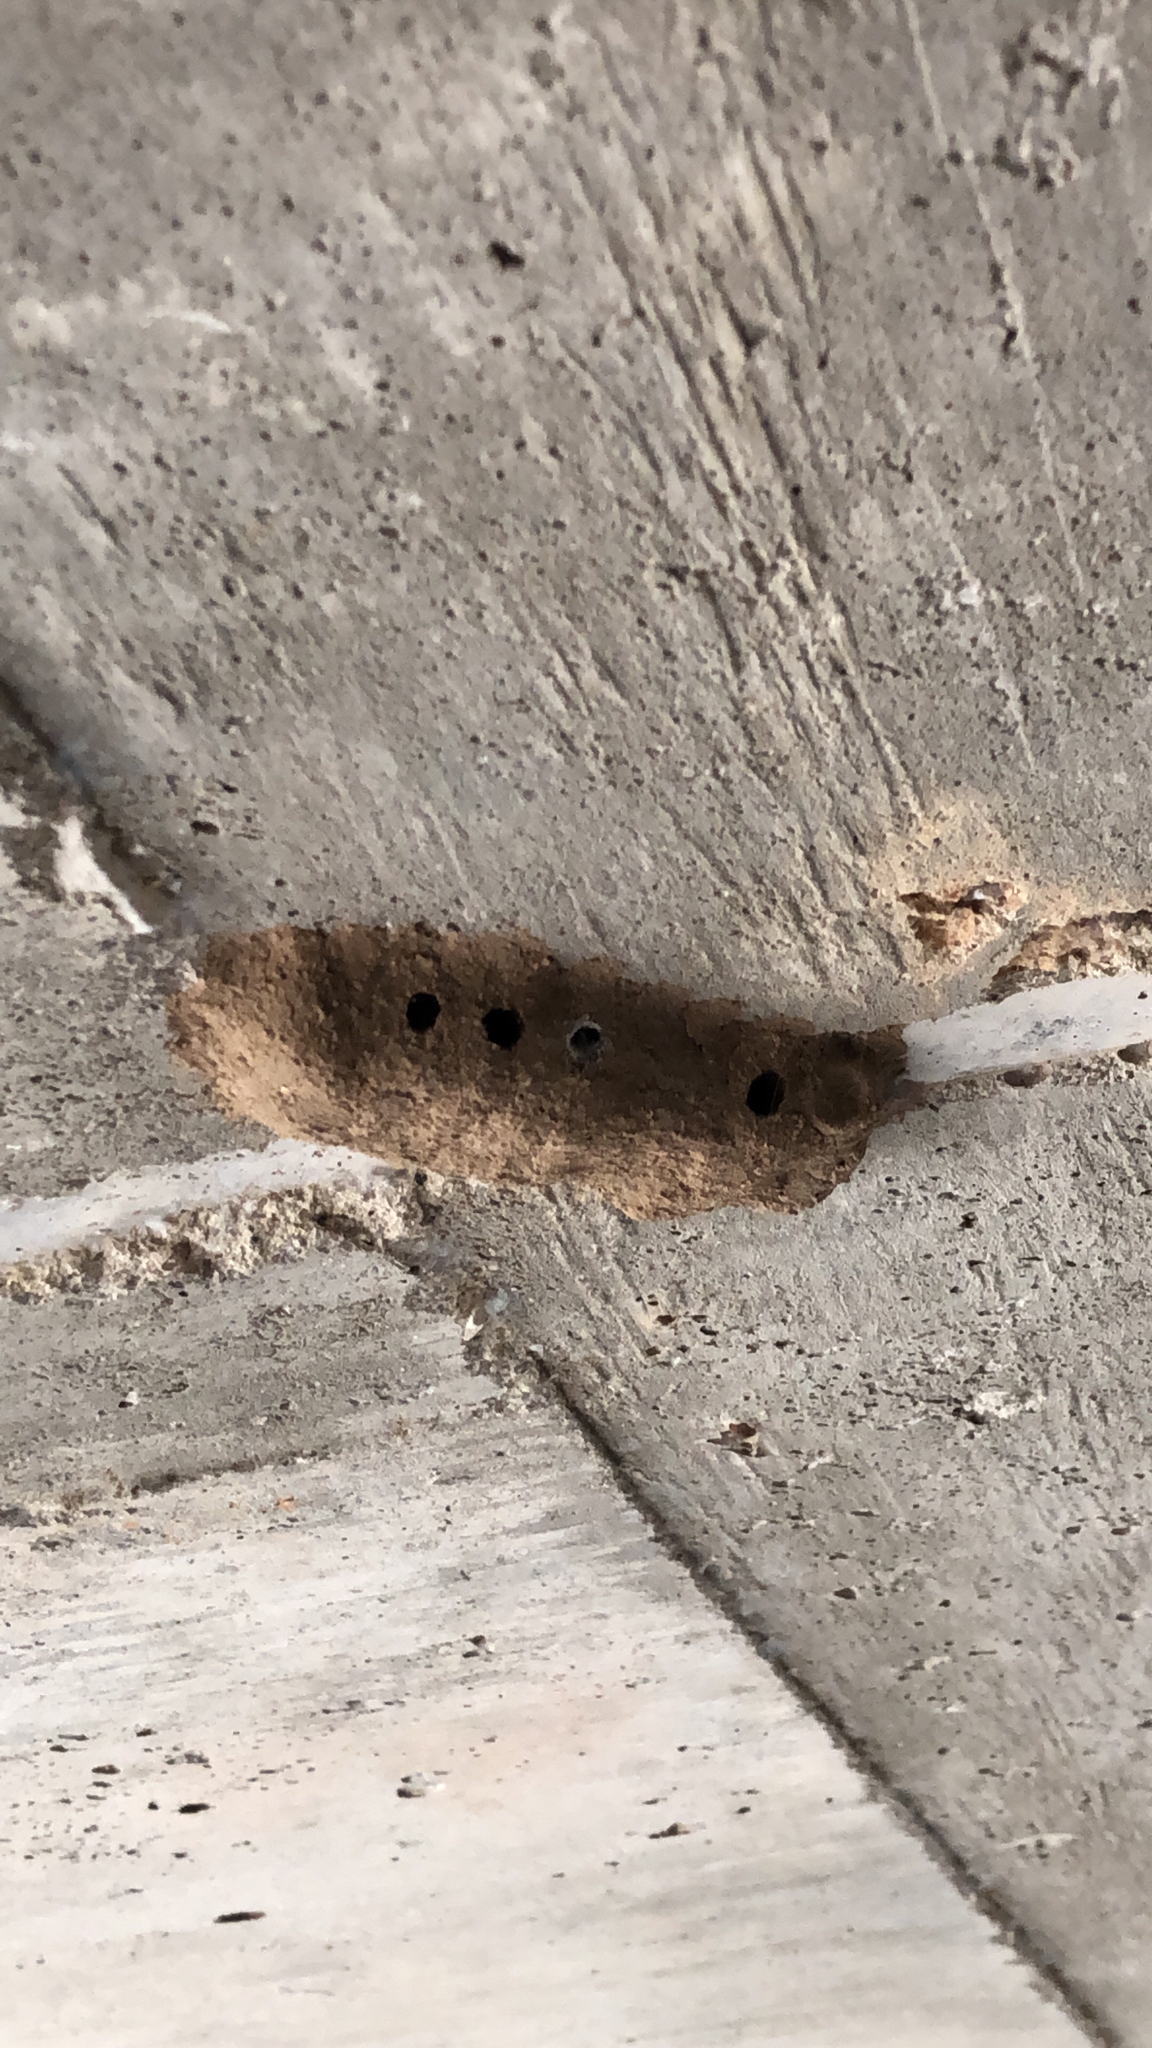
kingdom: Animalia
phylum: Arthropoda
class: Insecta
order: Hymenoptera
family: Sphecidae
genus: Sceliphron
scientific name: Sceliphron
